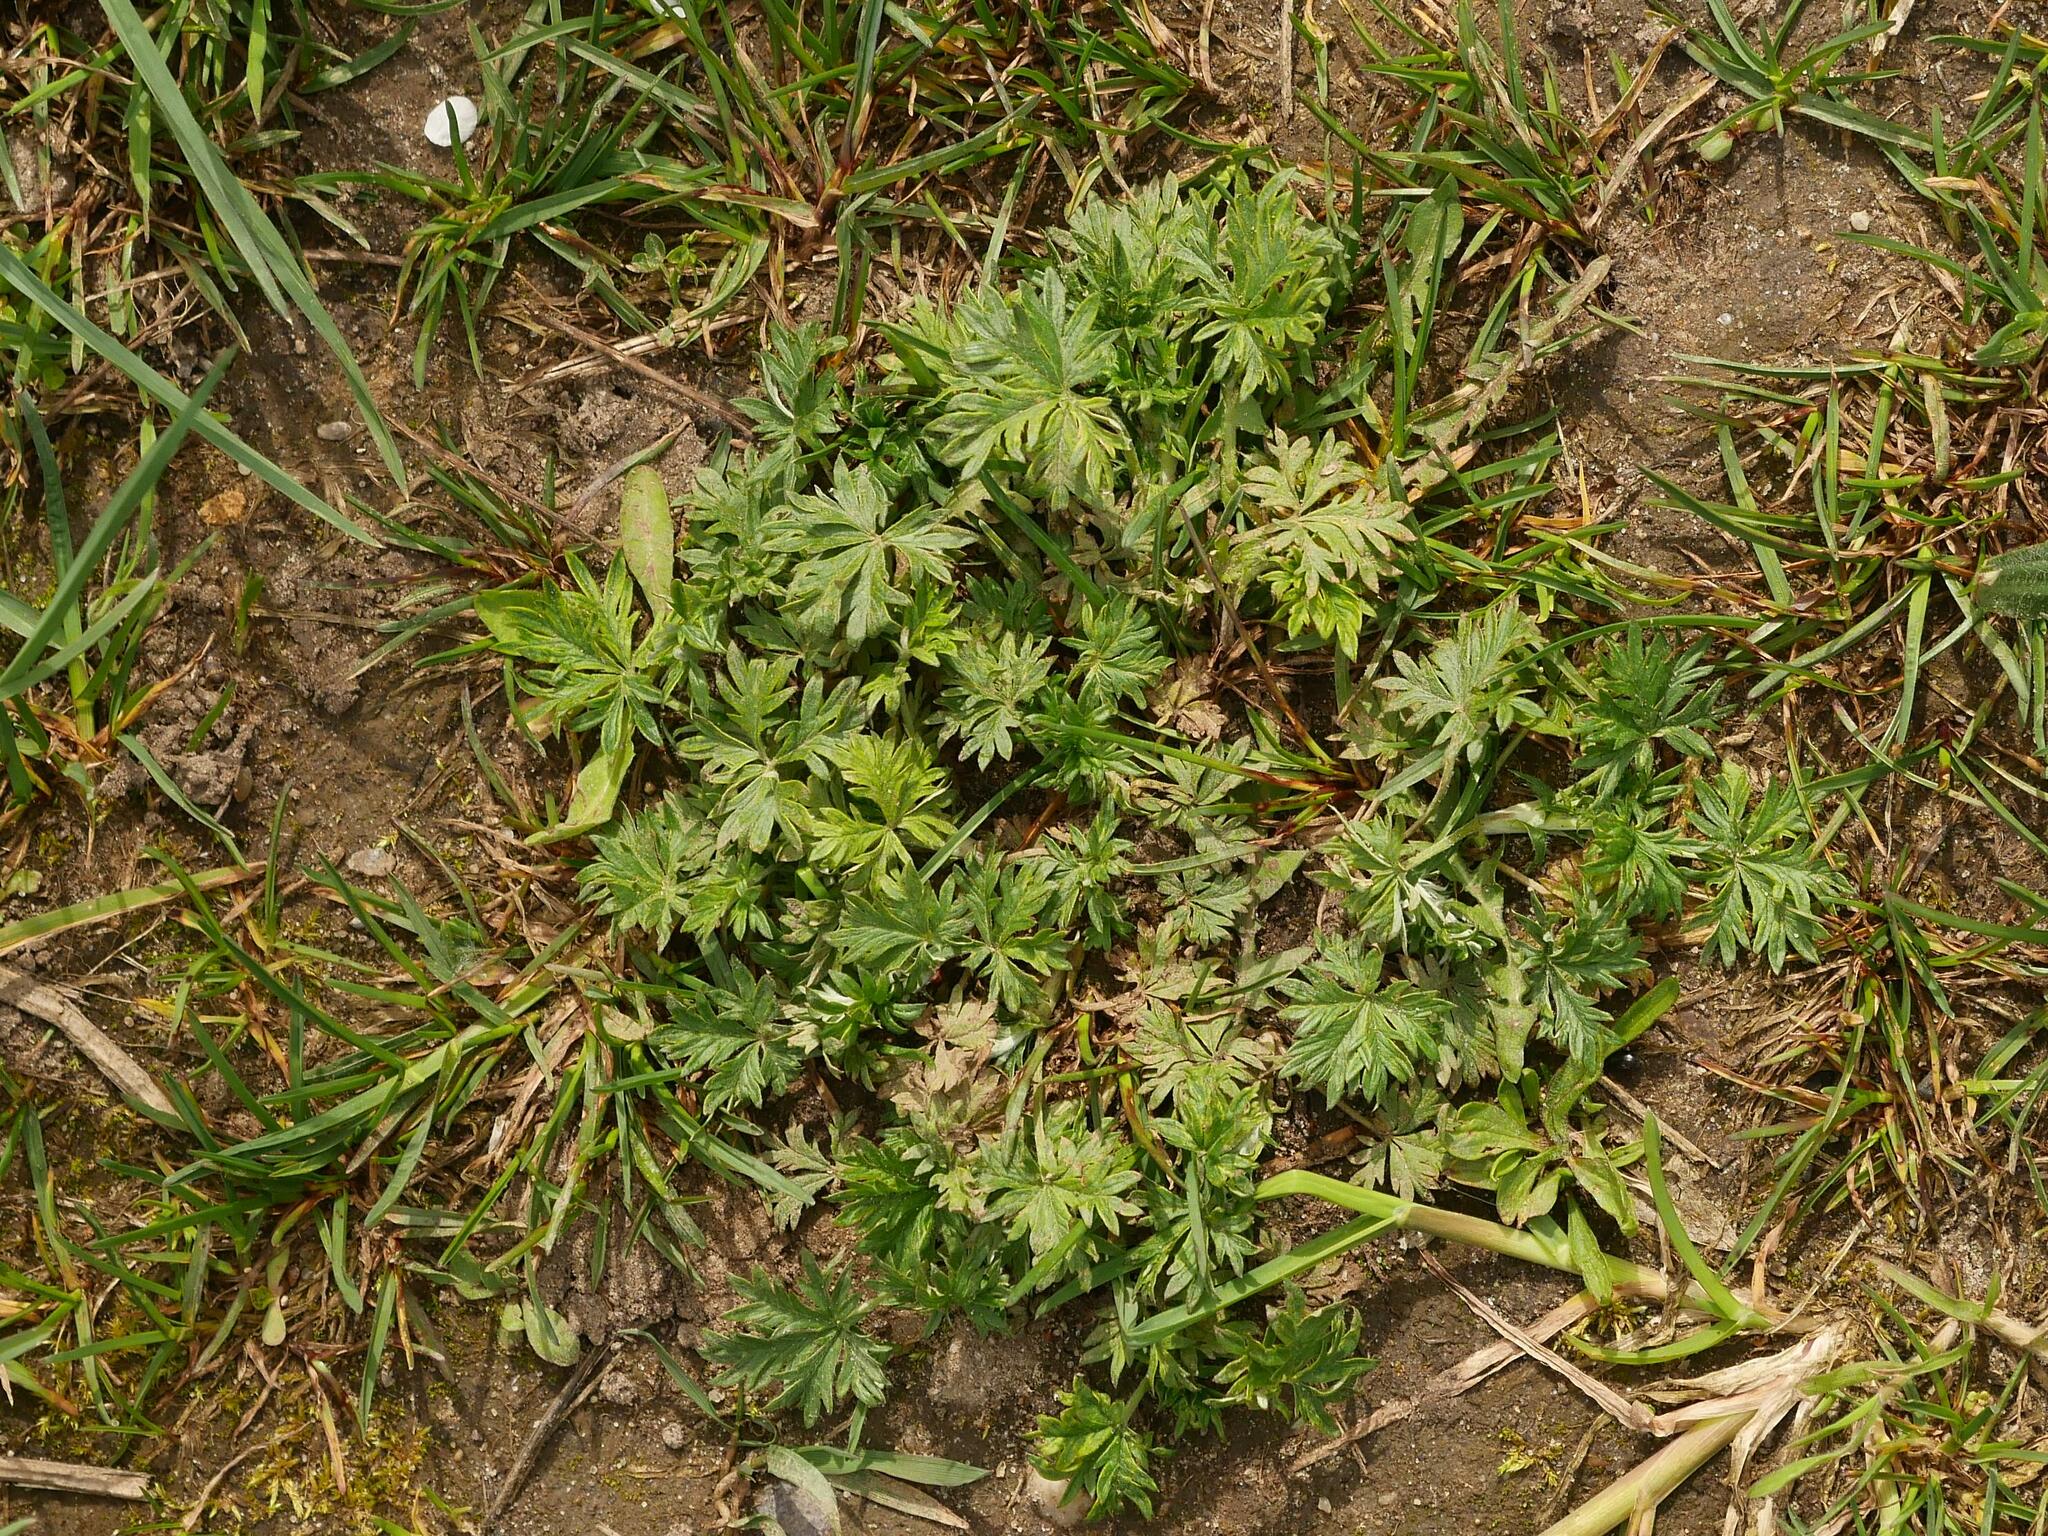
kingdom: Plantae
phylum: Tracheophyta
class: Magnoliopsida
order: Rosales
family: Rosaceae
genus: Potentilla
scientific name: Potentilla argentea
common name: Hoary cinquefoil
